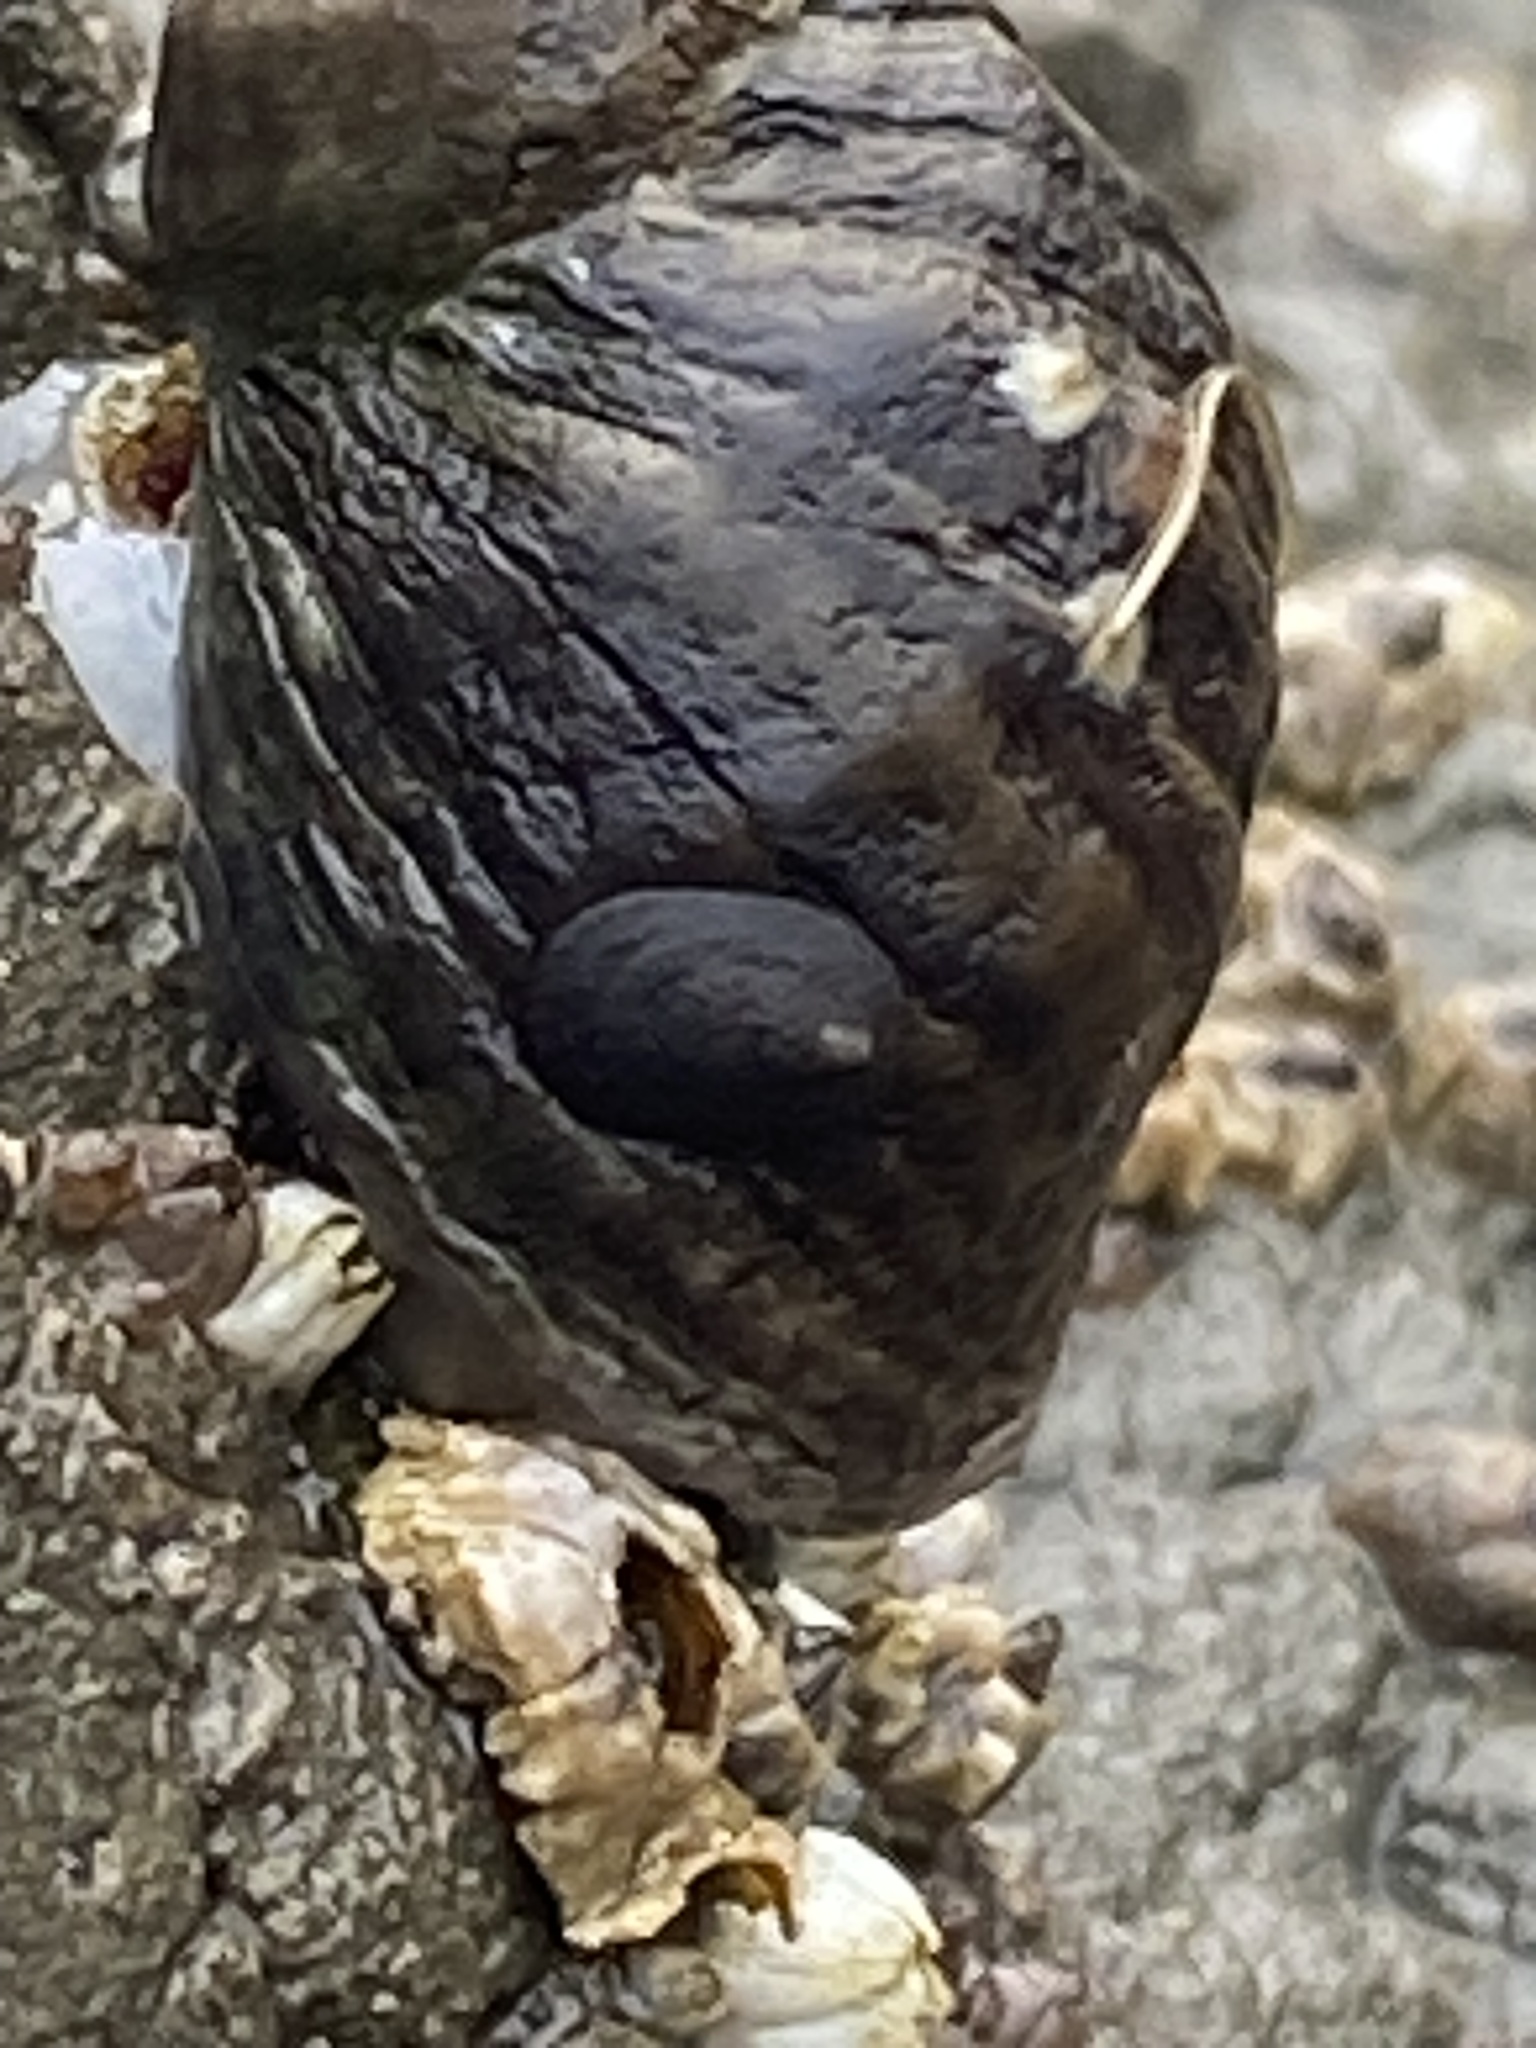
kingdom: Animalia
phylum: Mollusca
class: Gastropoda
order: Neogastropoda
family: Muricidae
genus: Nucella
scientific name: Nucella emarginata
